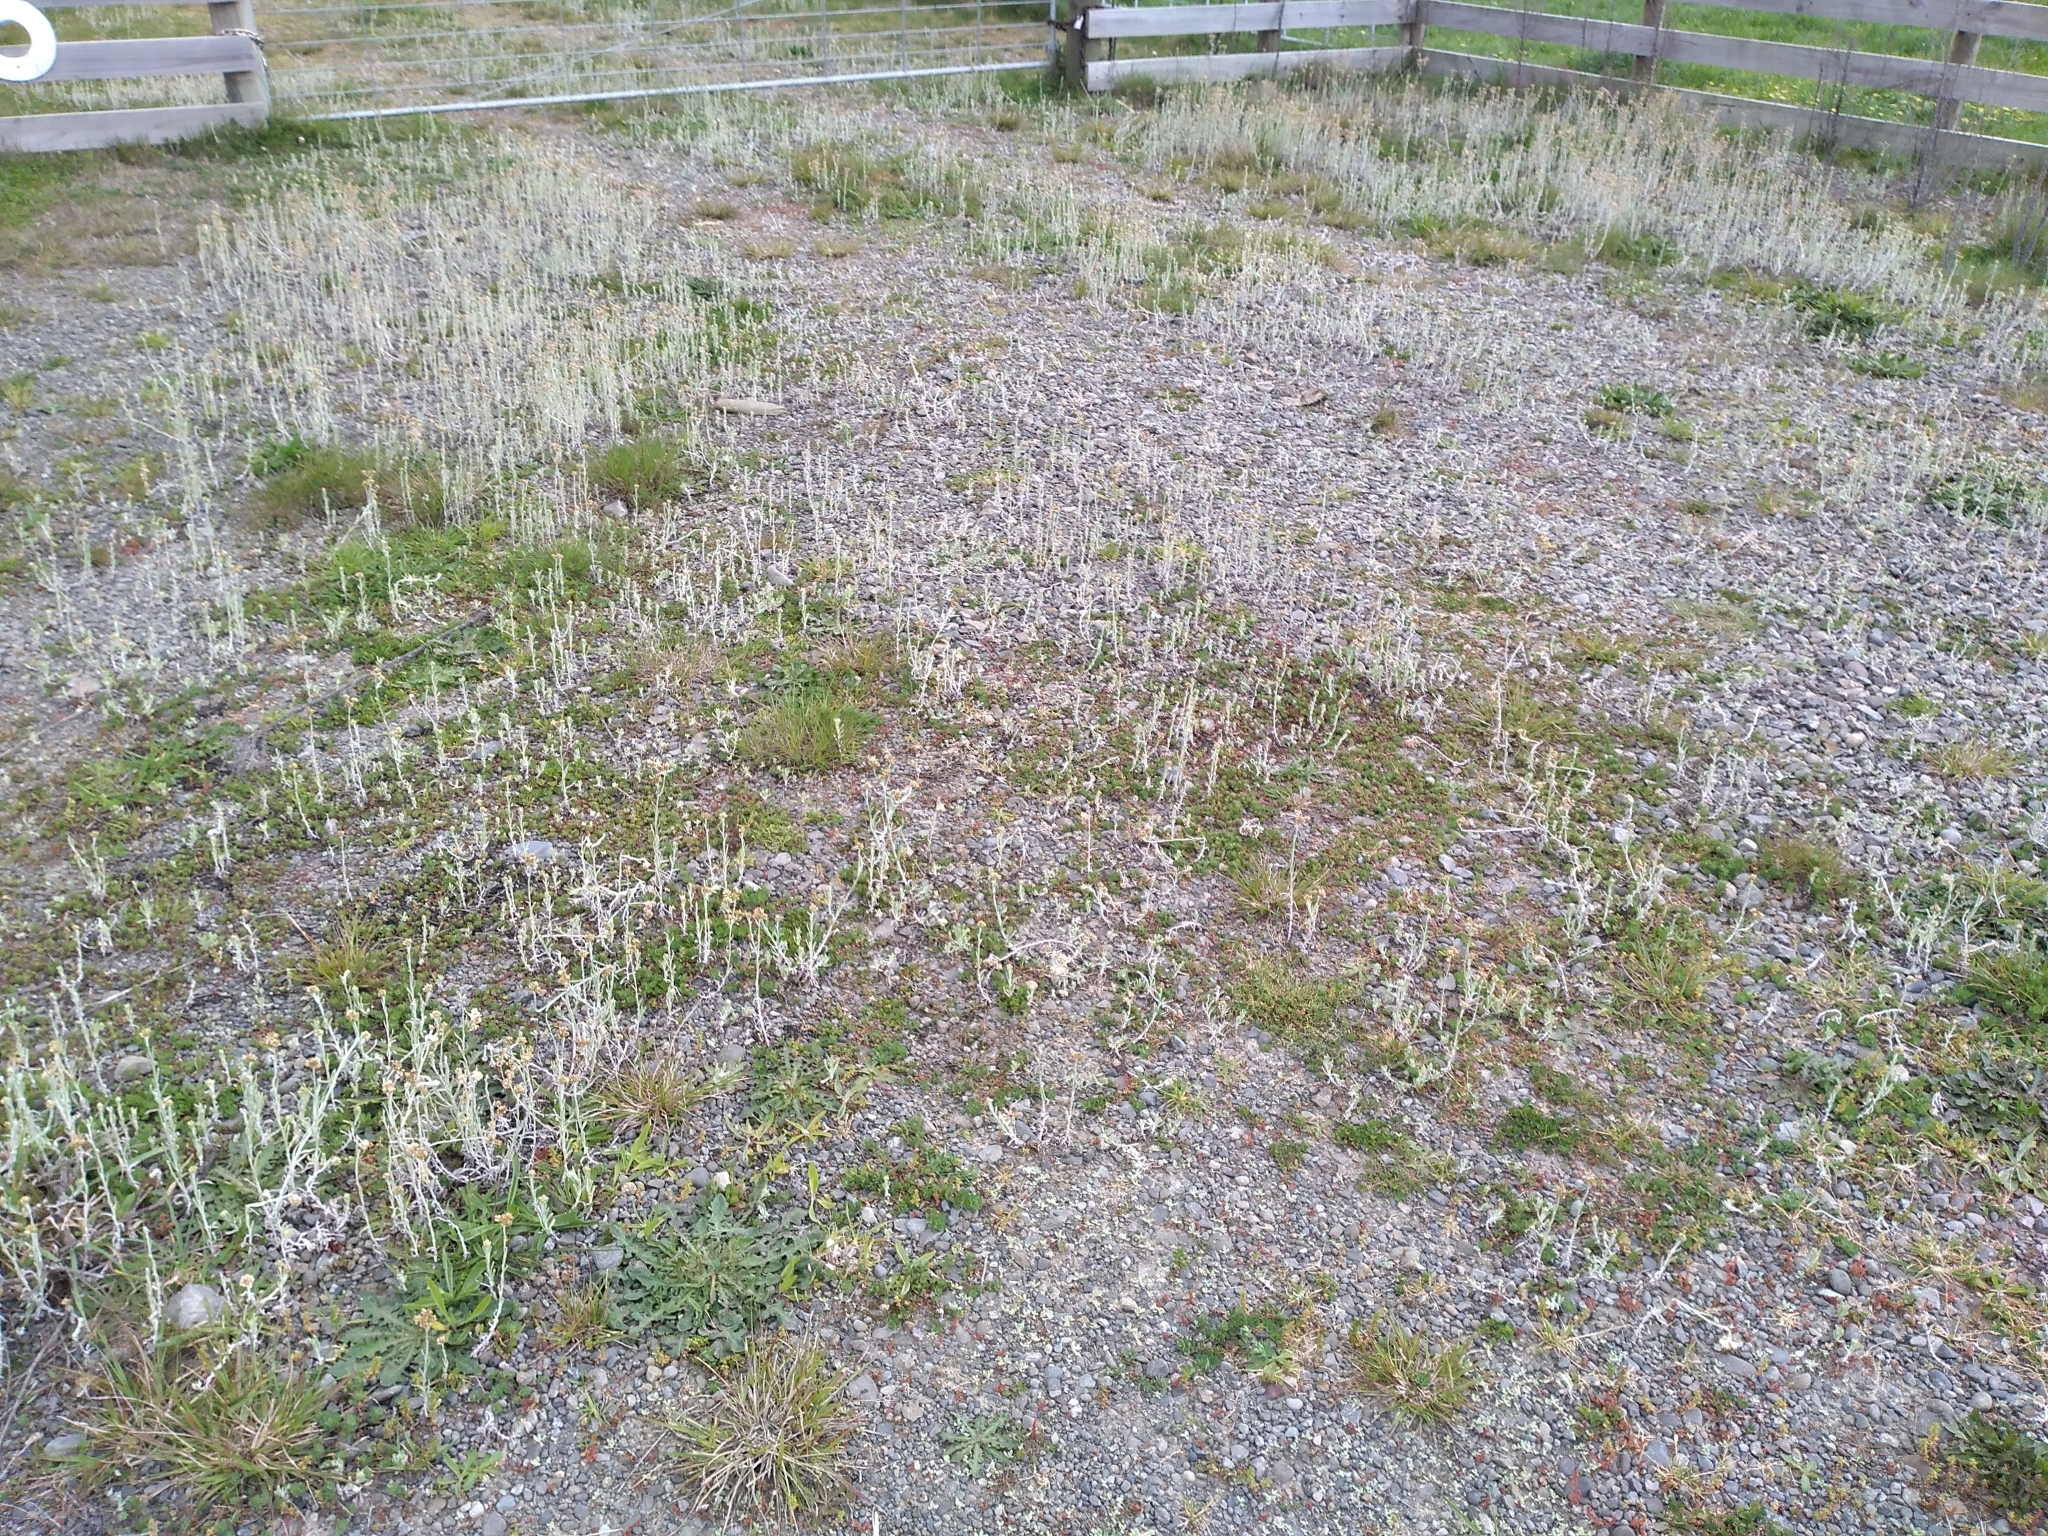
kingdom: Plantae
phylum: Tracheophyta
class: Magnoliopsida
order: Asterales
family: Asteraceae
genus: Helichrysum
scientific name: Helichrysum luteoalbum
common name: Daisy
